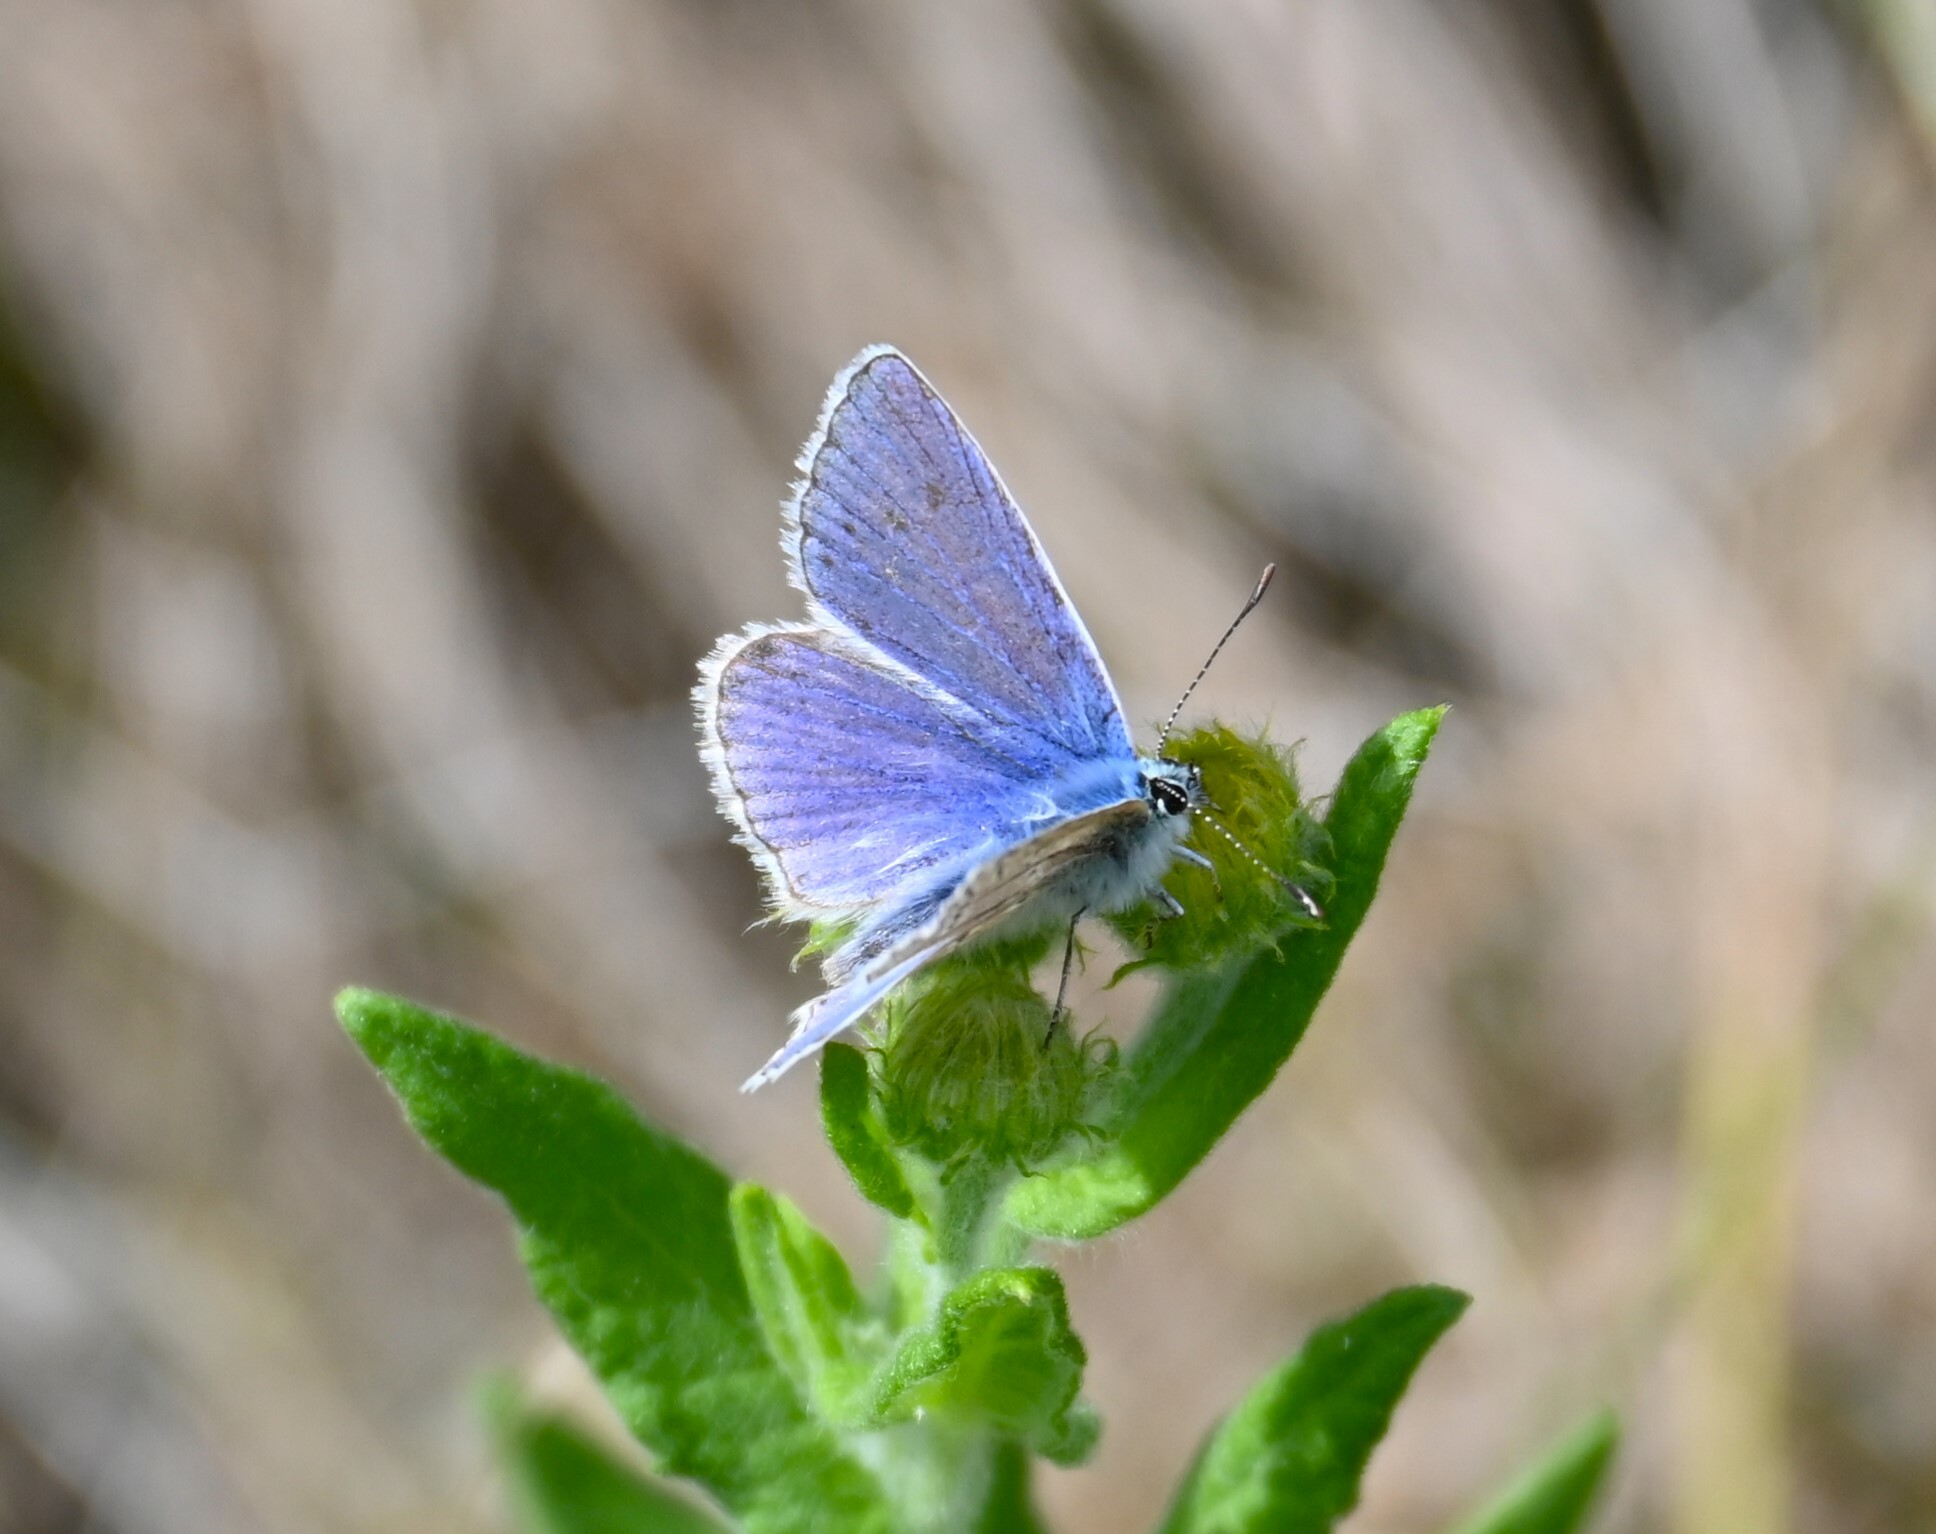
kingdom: Animalia
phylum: Arthropoda
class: Insecta
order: Lepidoptera
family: Lycaenidae
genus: Polyommatus
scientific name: Polyommatus icarus
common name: Common blue
